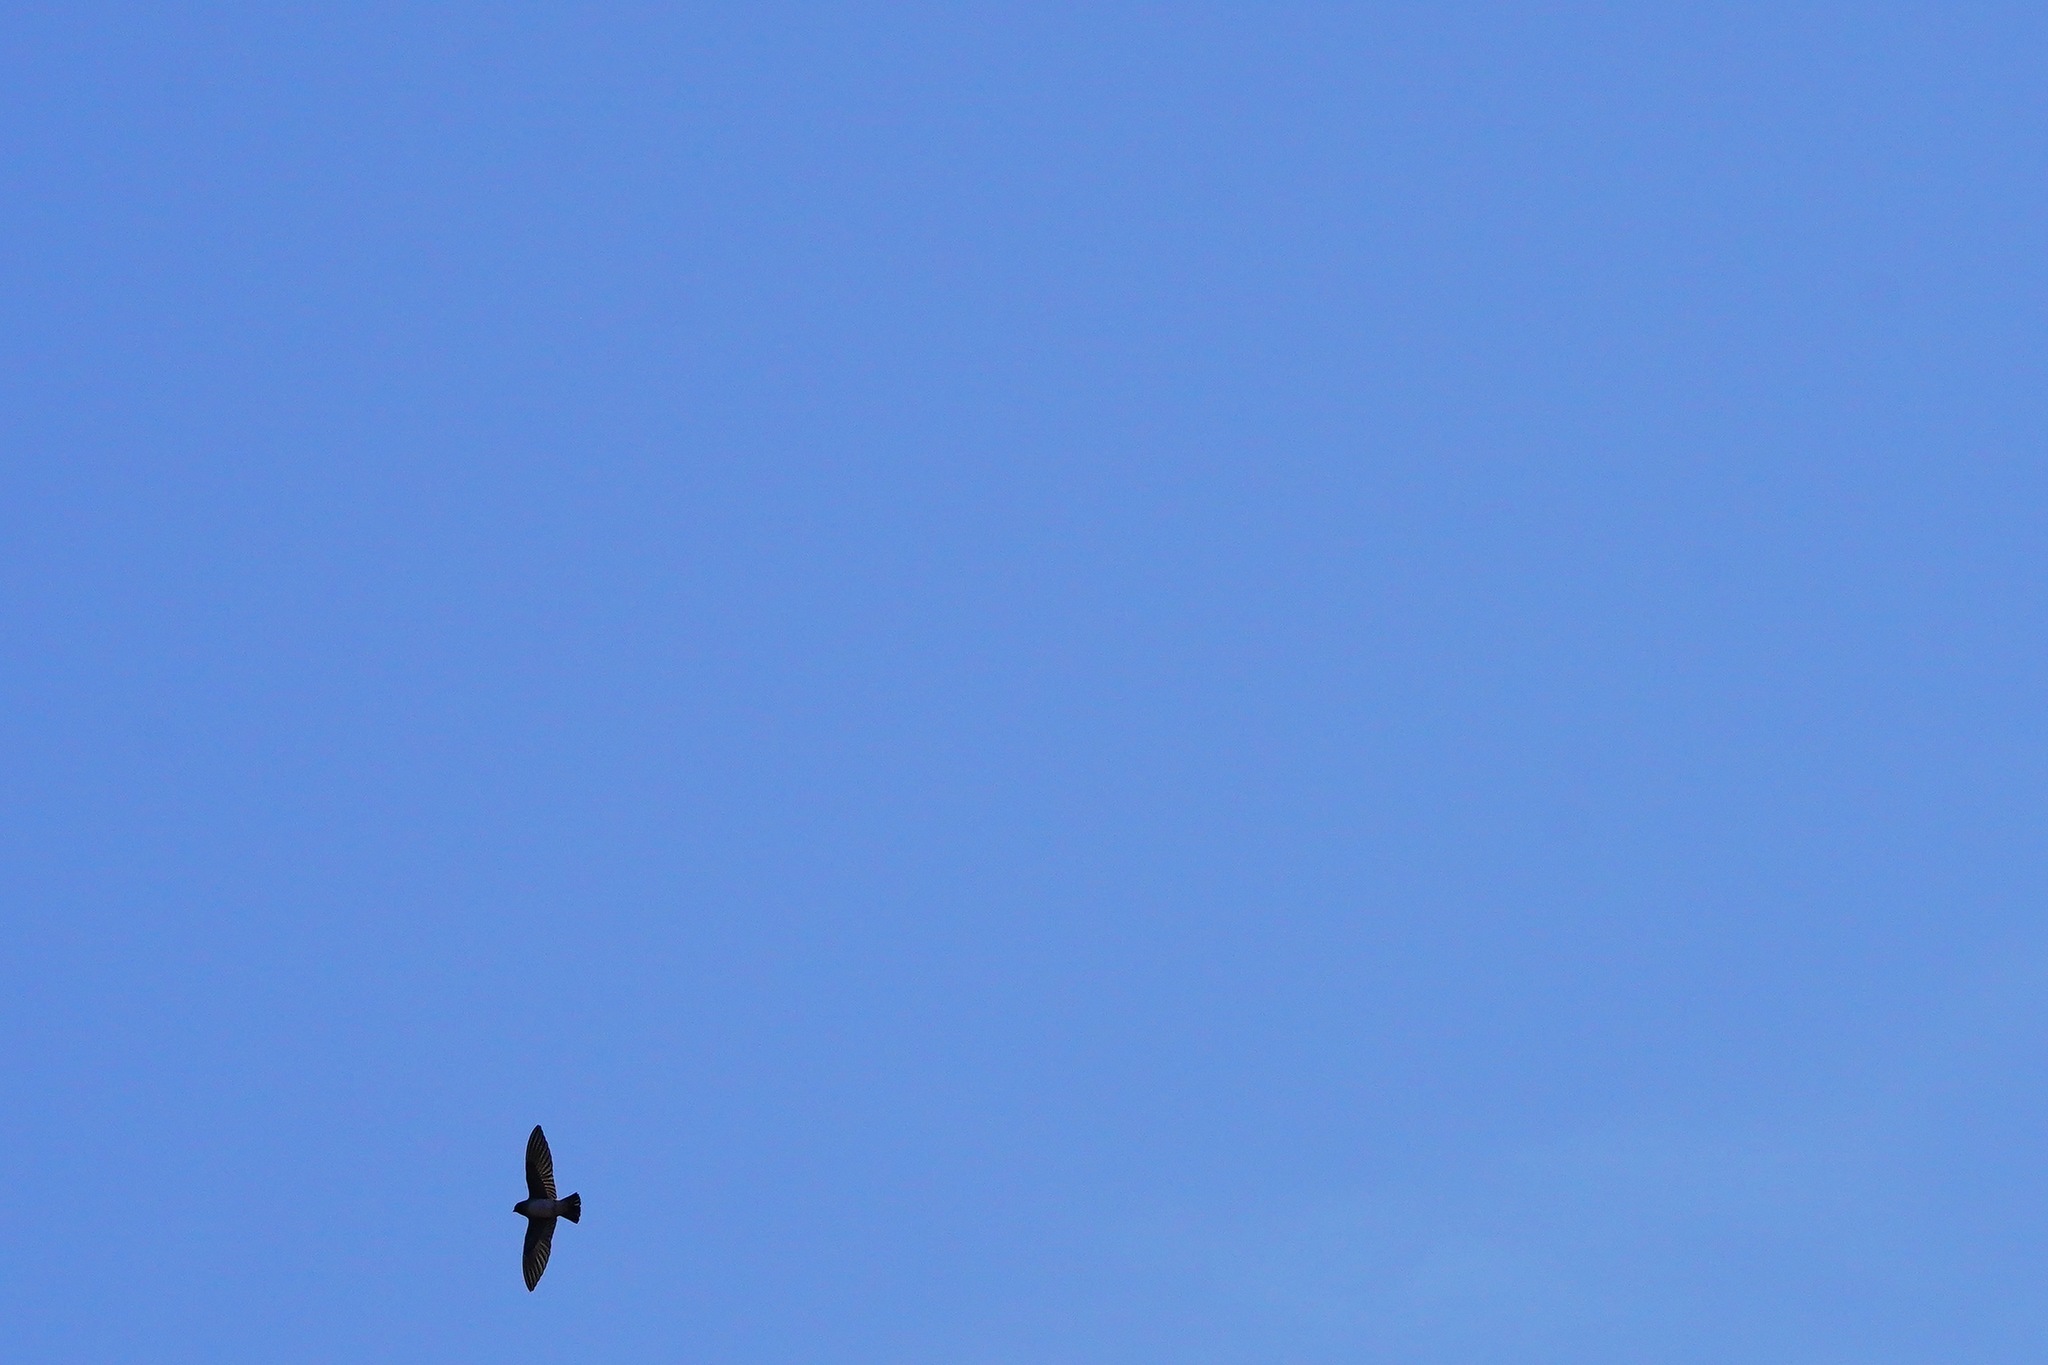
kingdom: Animalia
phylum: Chordata
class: Aves
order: Passeriformes
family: Hirundinidae
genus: Petrochelidon
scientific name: Petrochelidon pyrrhonota
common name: American cliff swallow
